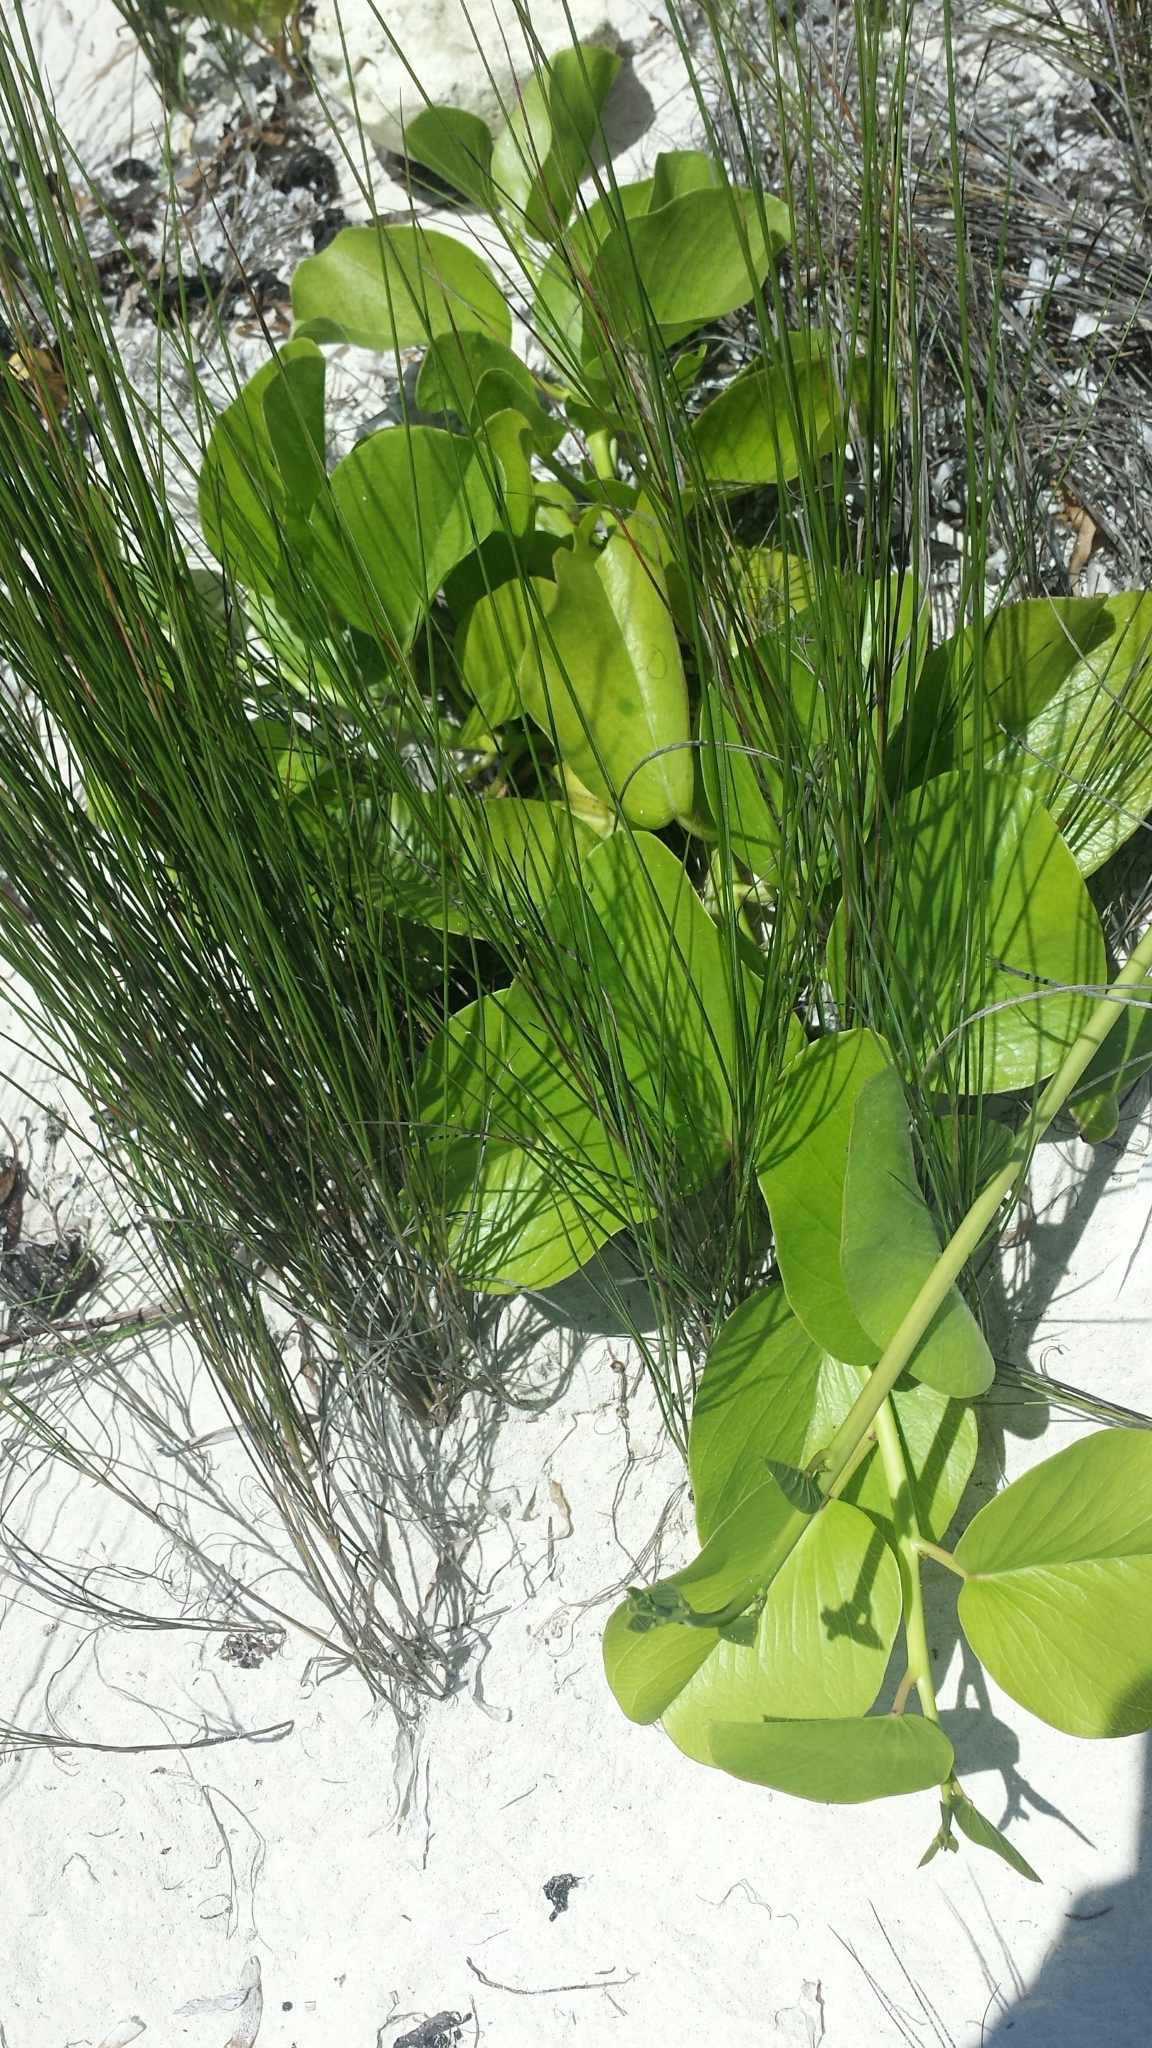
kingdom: Plantae
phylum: Tracheophyta
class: Magnoliopsida
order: Solanales
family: Convolvulaceae
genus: Ipomoea
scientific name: Ipomoea pes-caprae
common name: Beach morning glory
